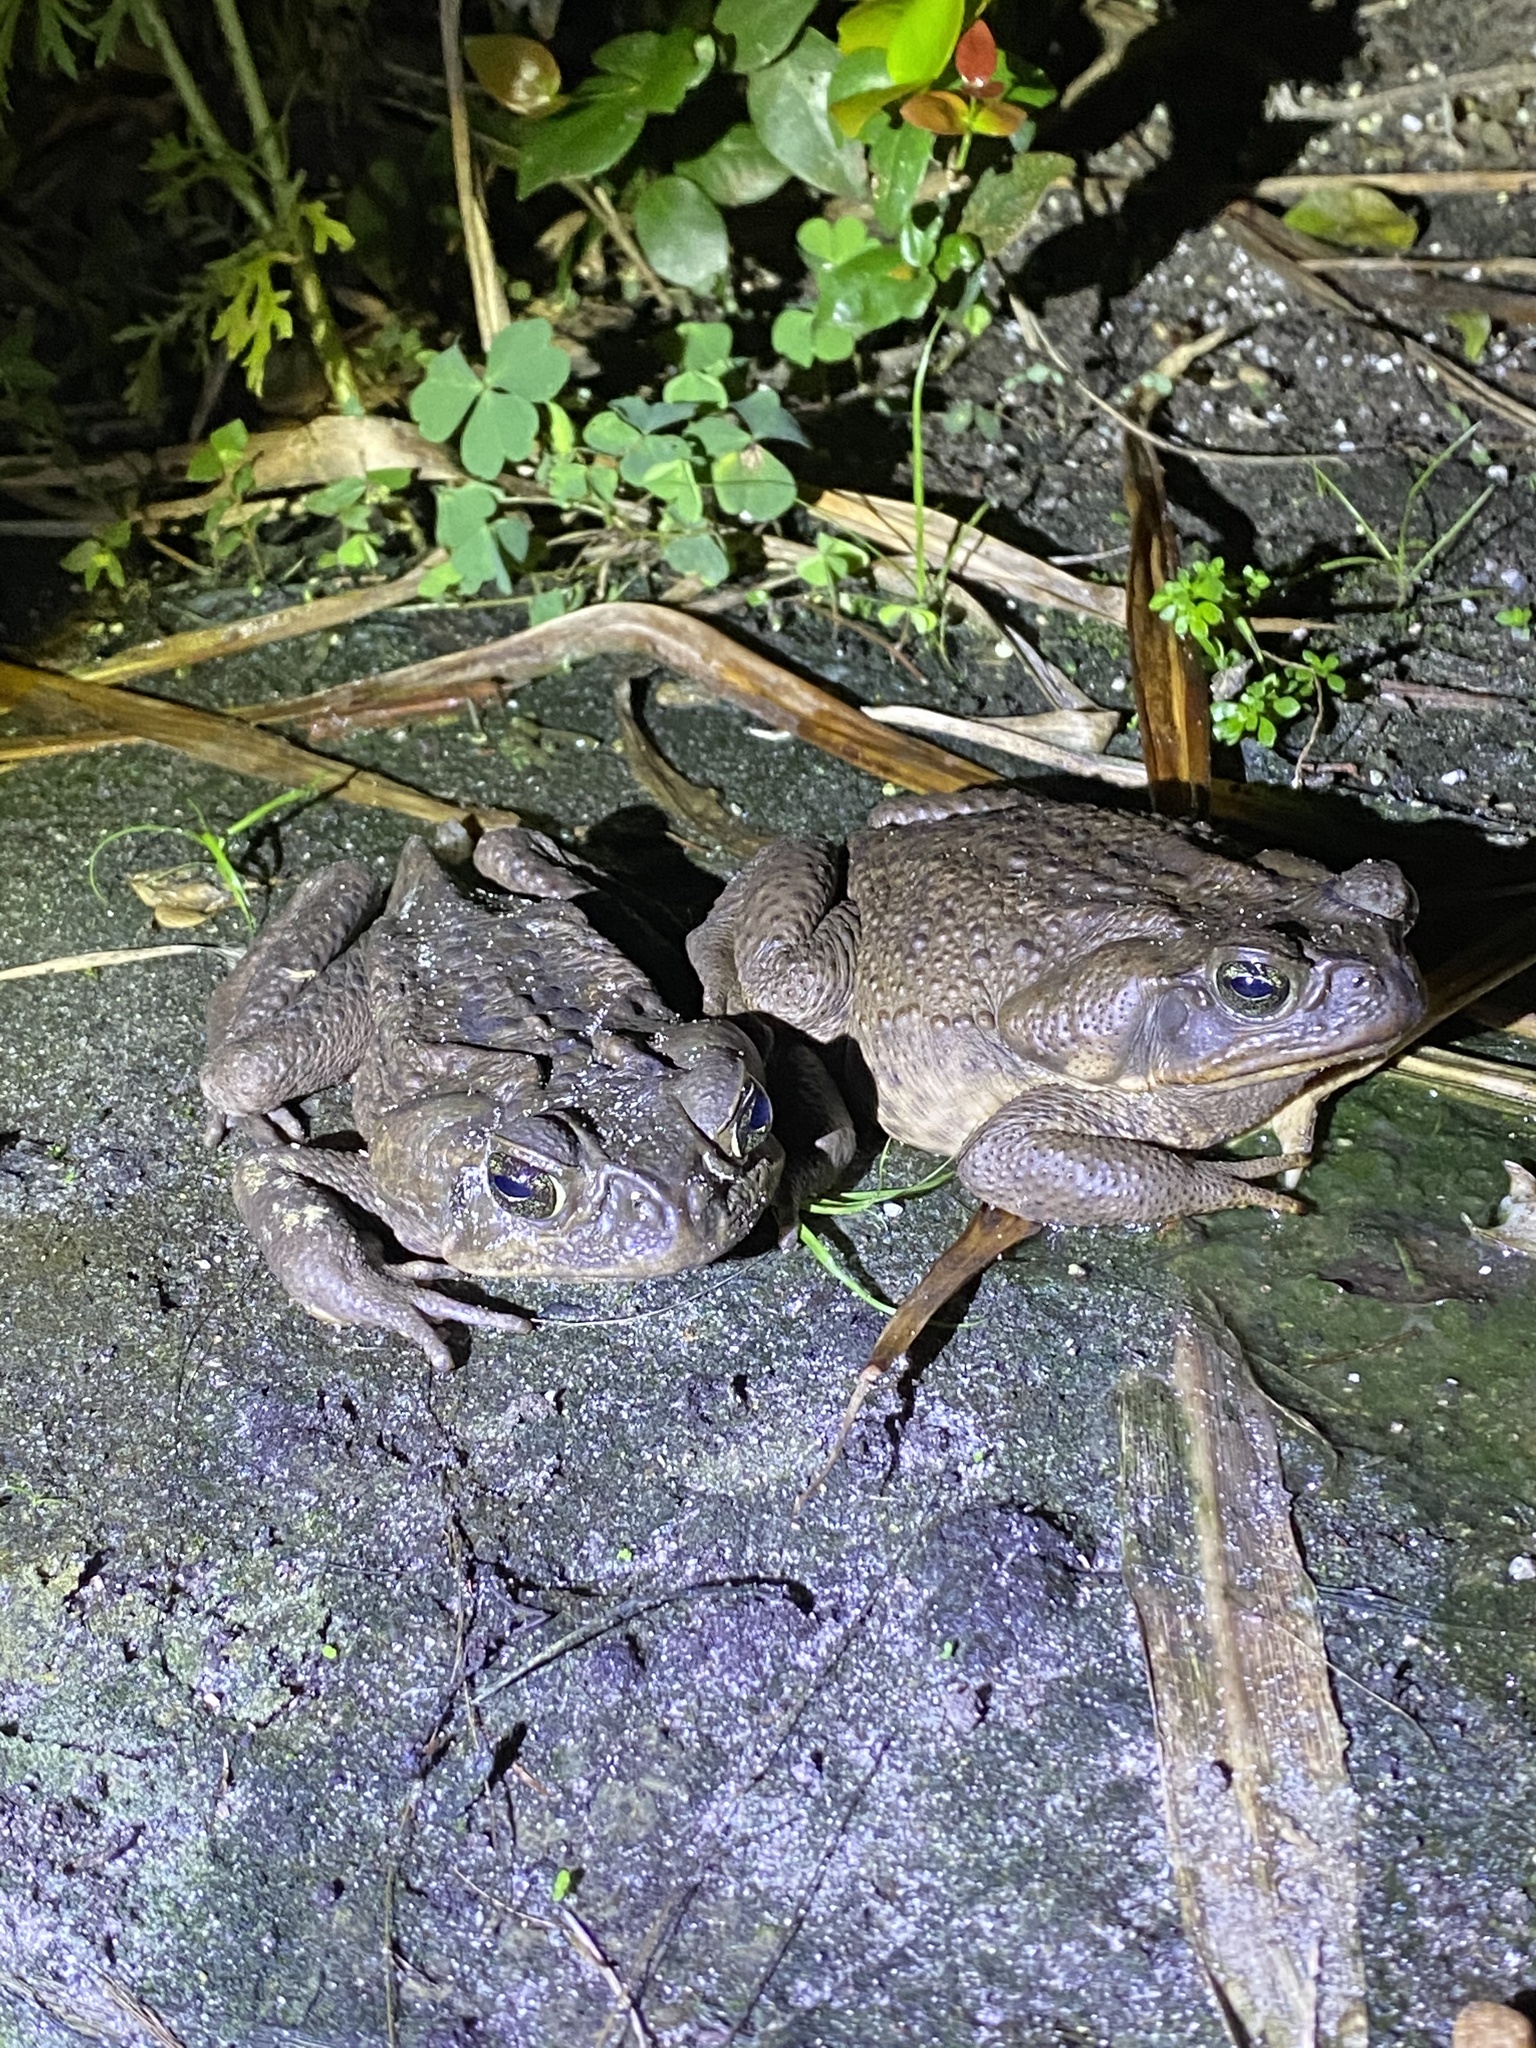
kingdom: Animalia
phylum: Chordata
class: Amphibia
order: Anura
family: Bufonidae
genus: Rhinella
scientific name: Rhinella marina
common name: Cane toad
